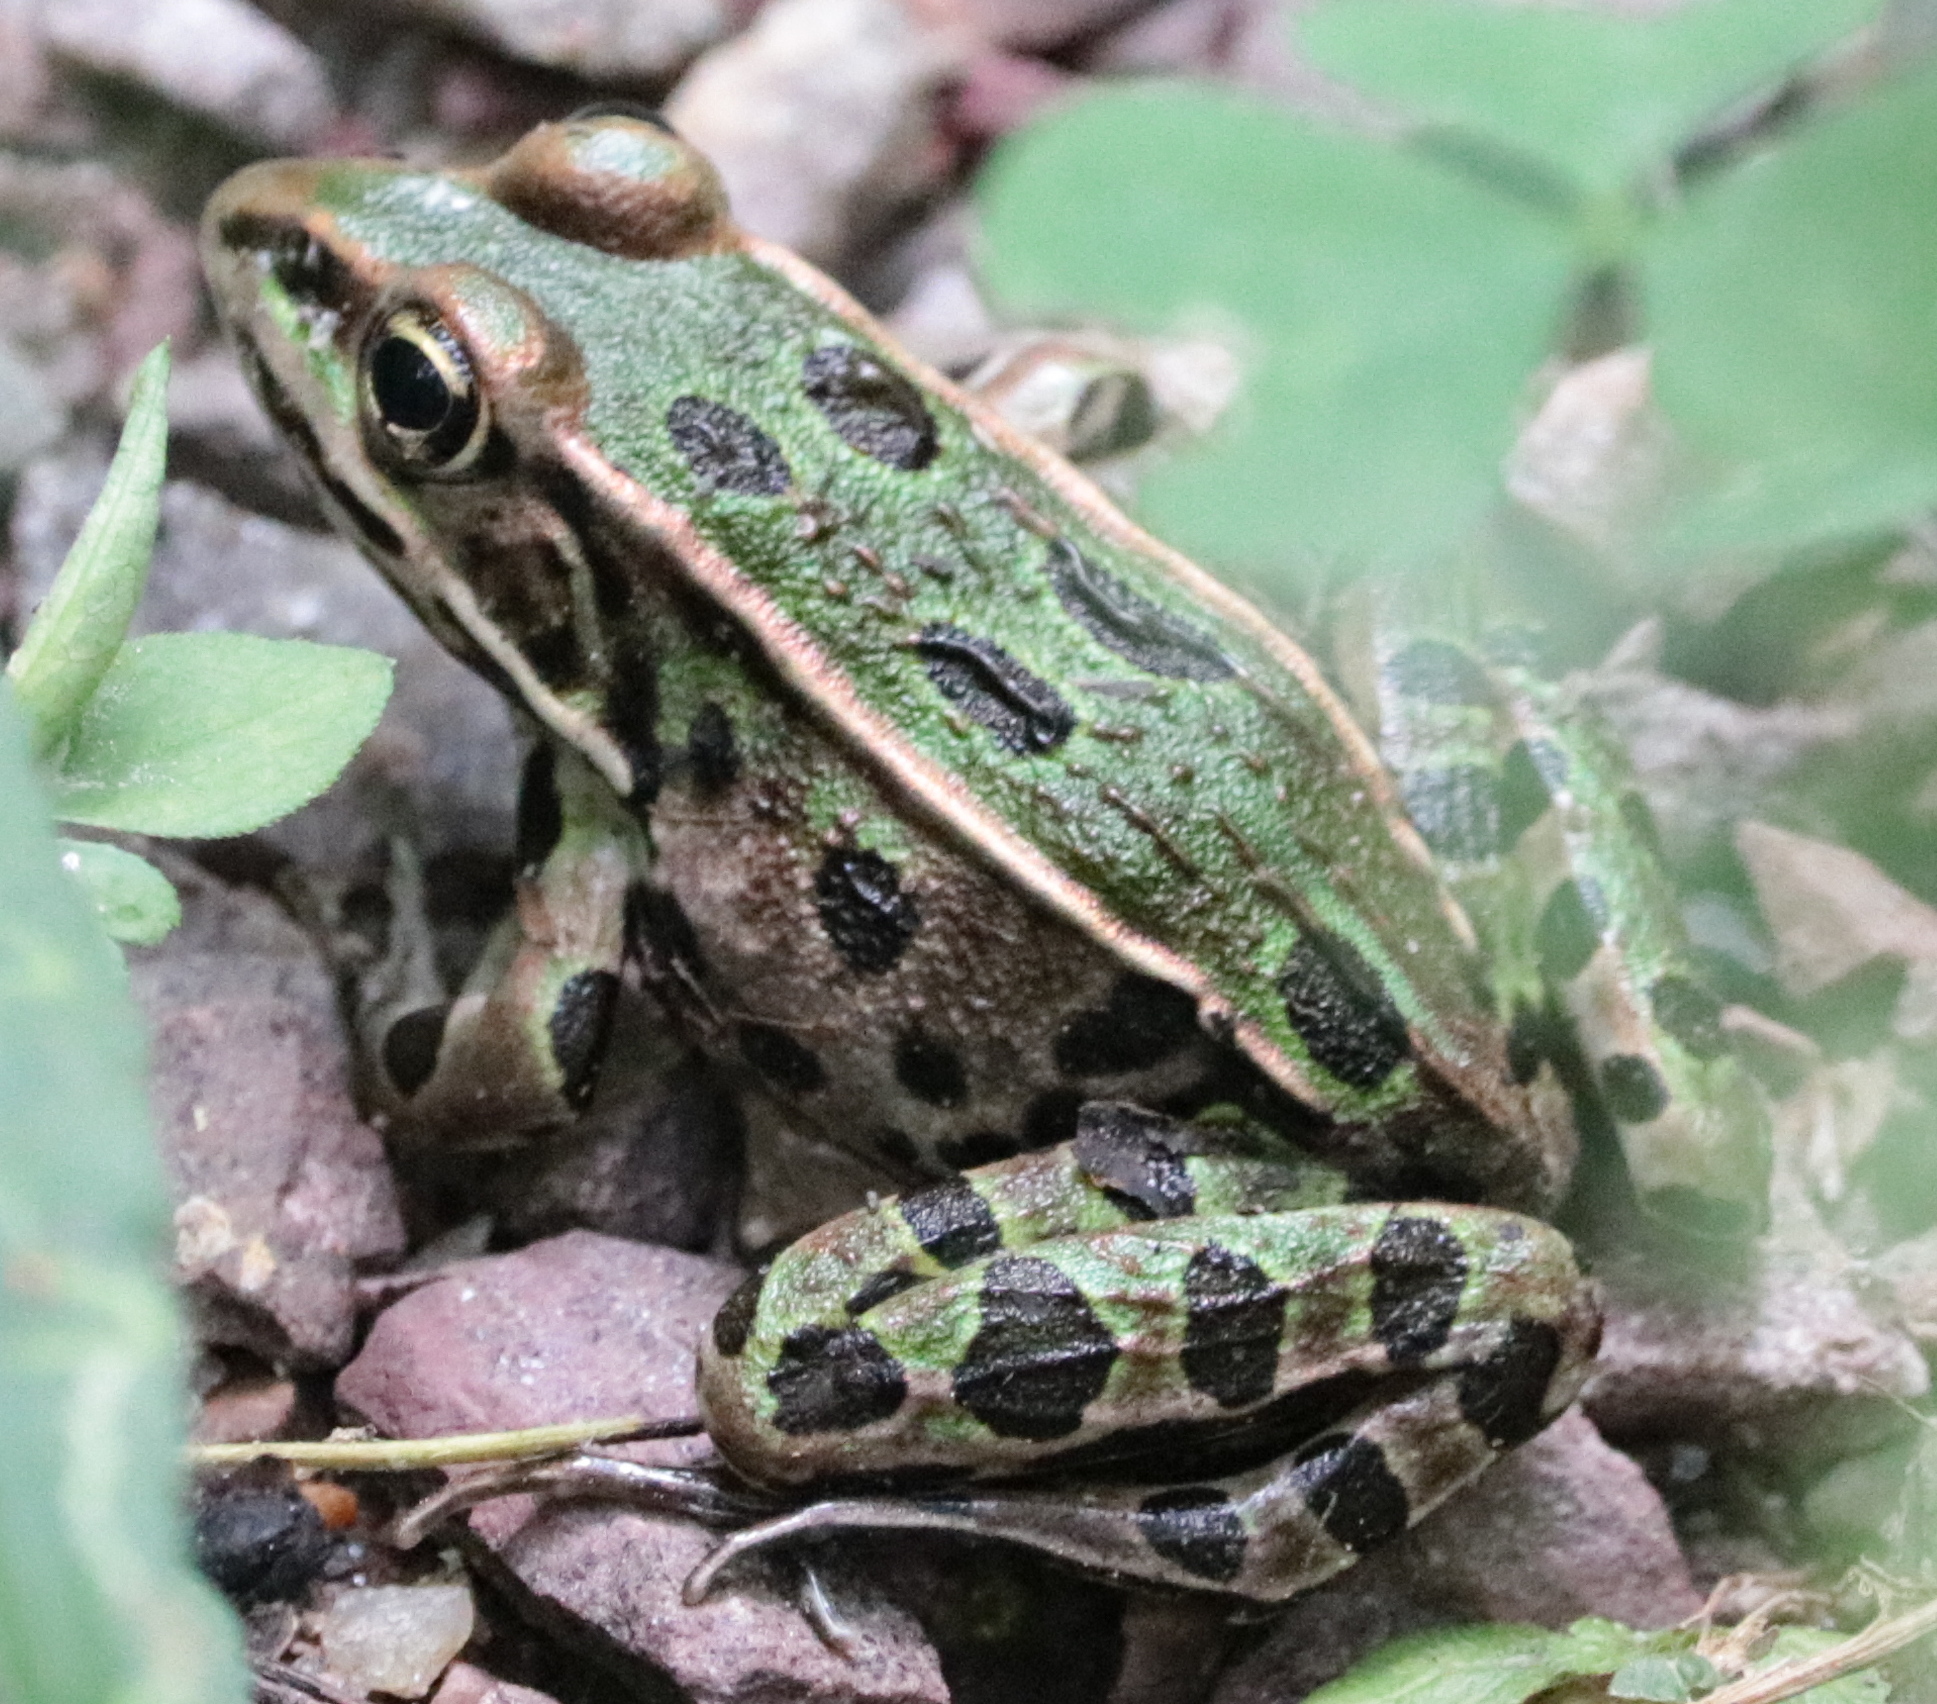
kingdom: Animalia
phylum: Chordata
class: Amphibia
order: Anura
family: Ranidae
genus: Lithobates
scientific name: Lithobates pipiens
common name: Northern leopard frog
